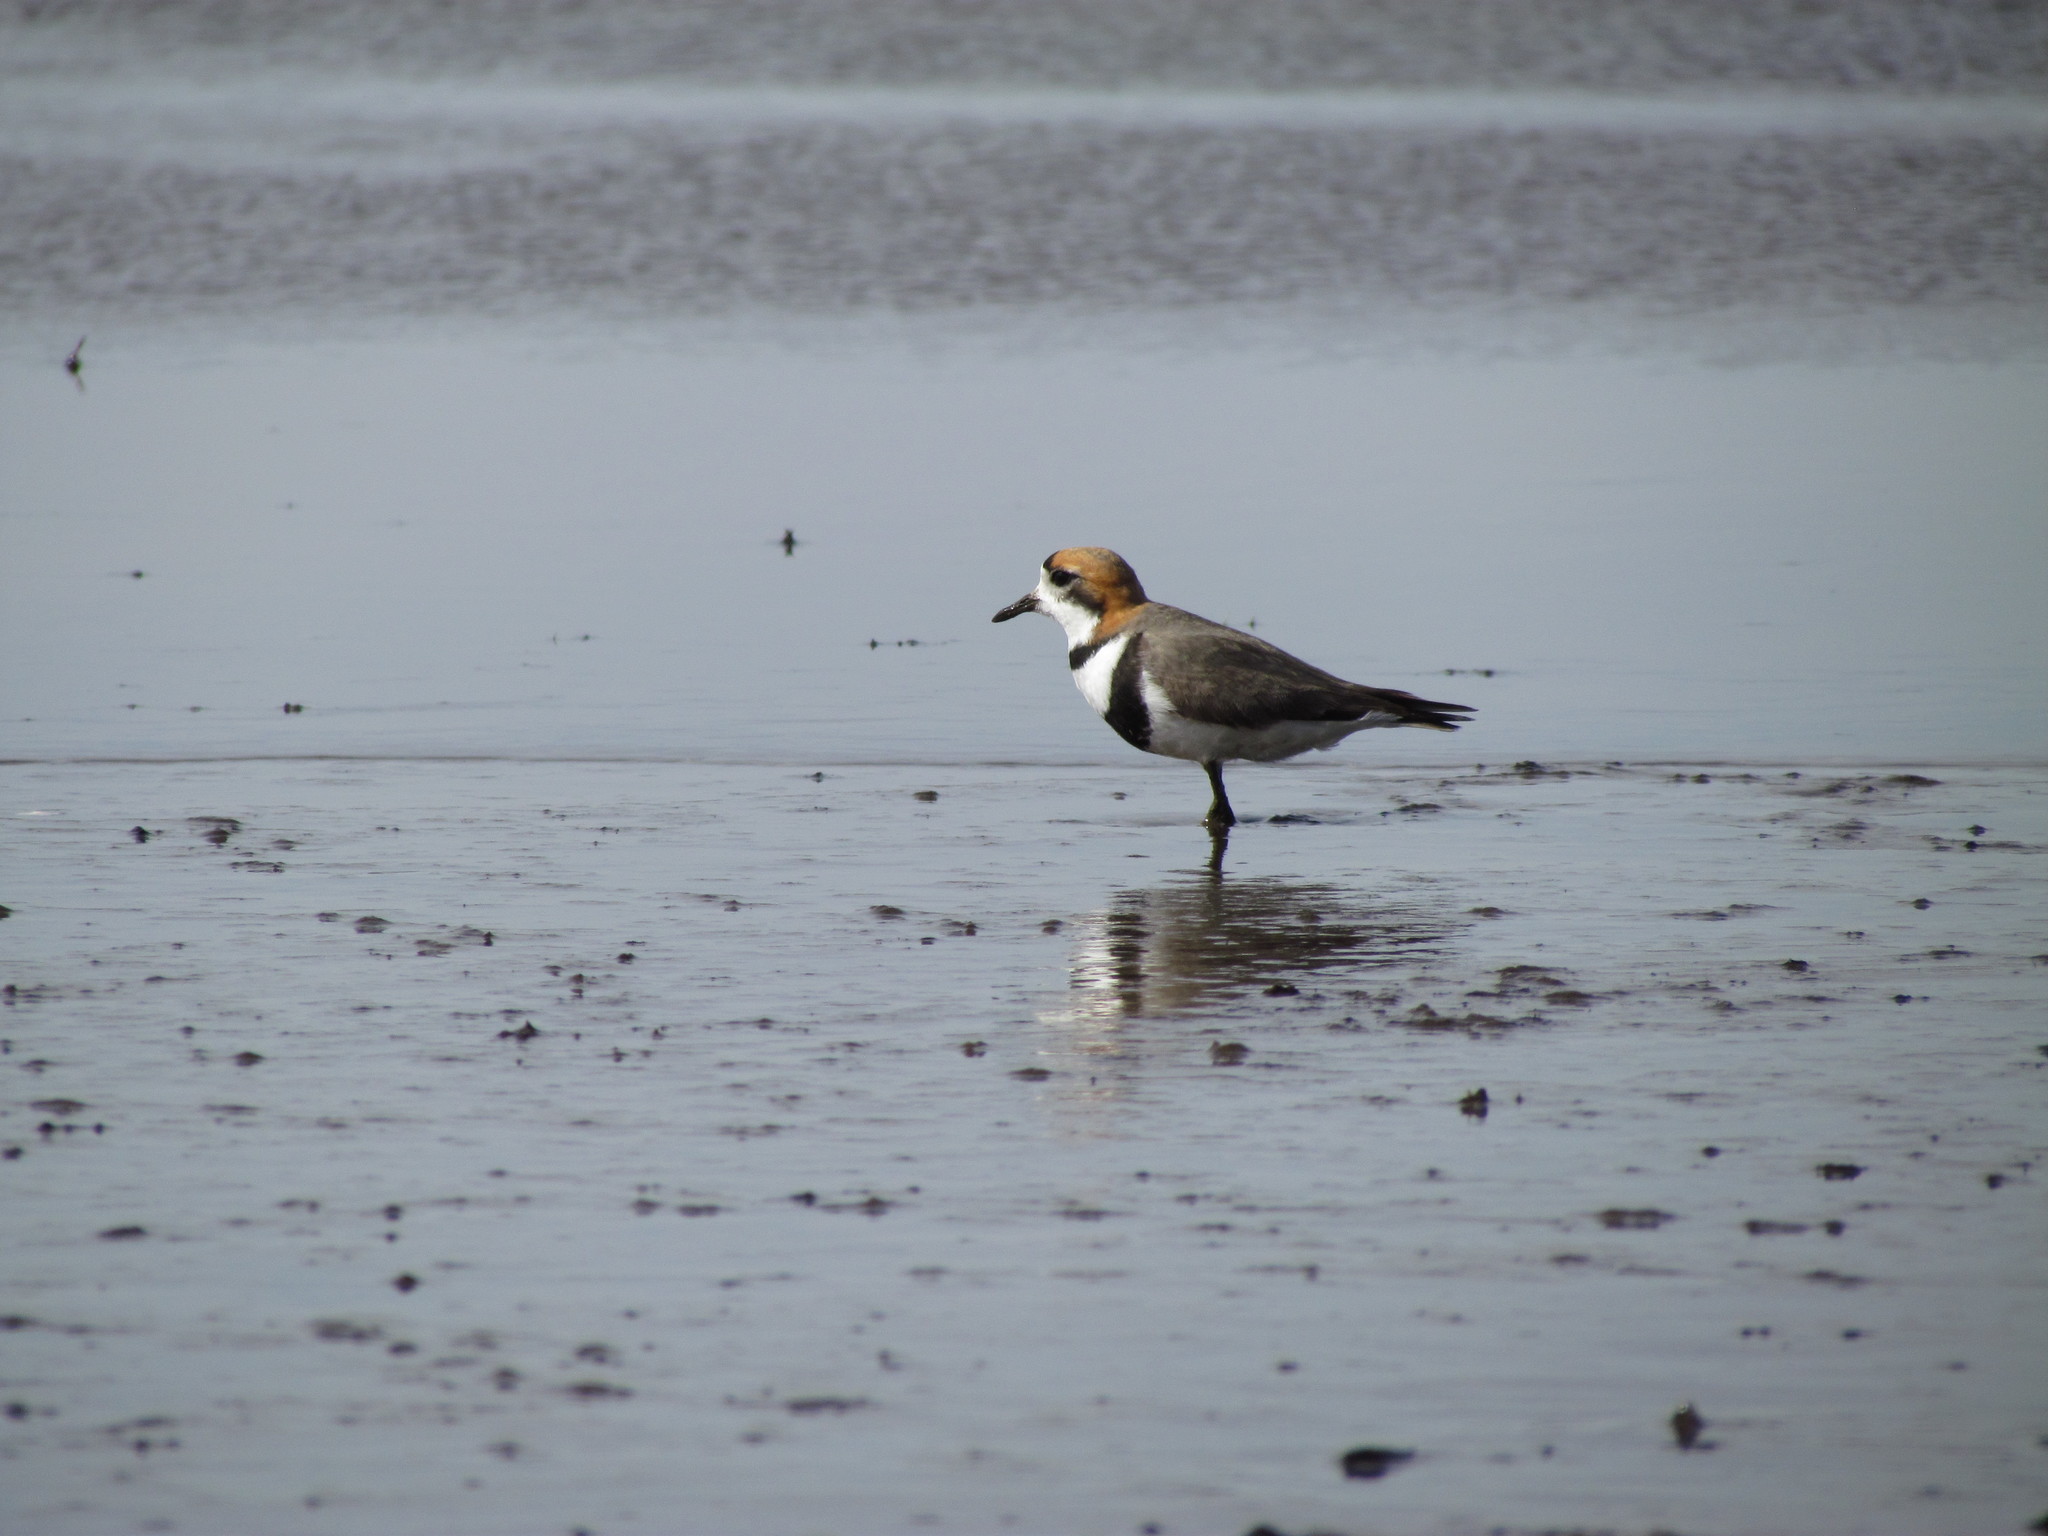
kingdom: Animalia
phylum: Chordata
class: Aves
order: Charadriiformes
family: Charadriidae
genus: Anarhynchus
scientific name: Anarhynchus
